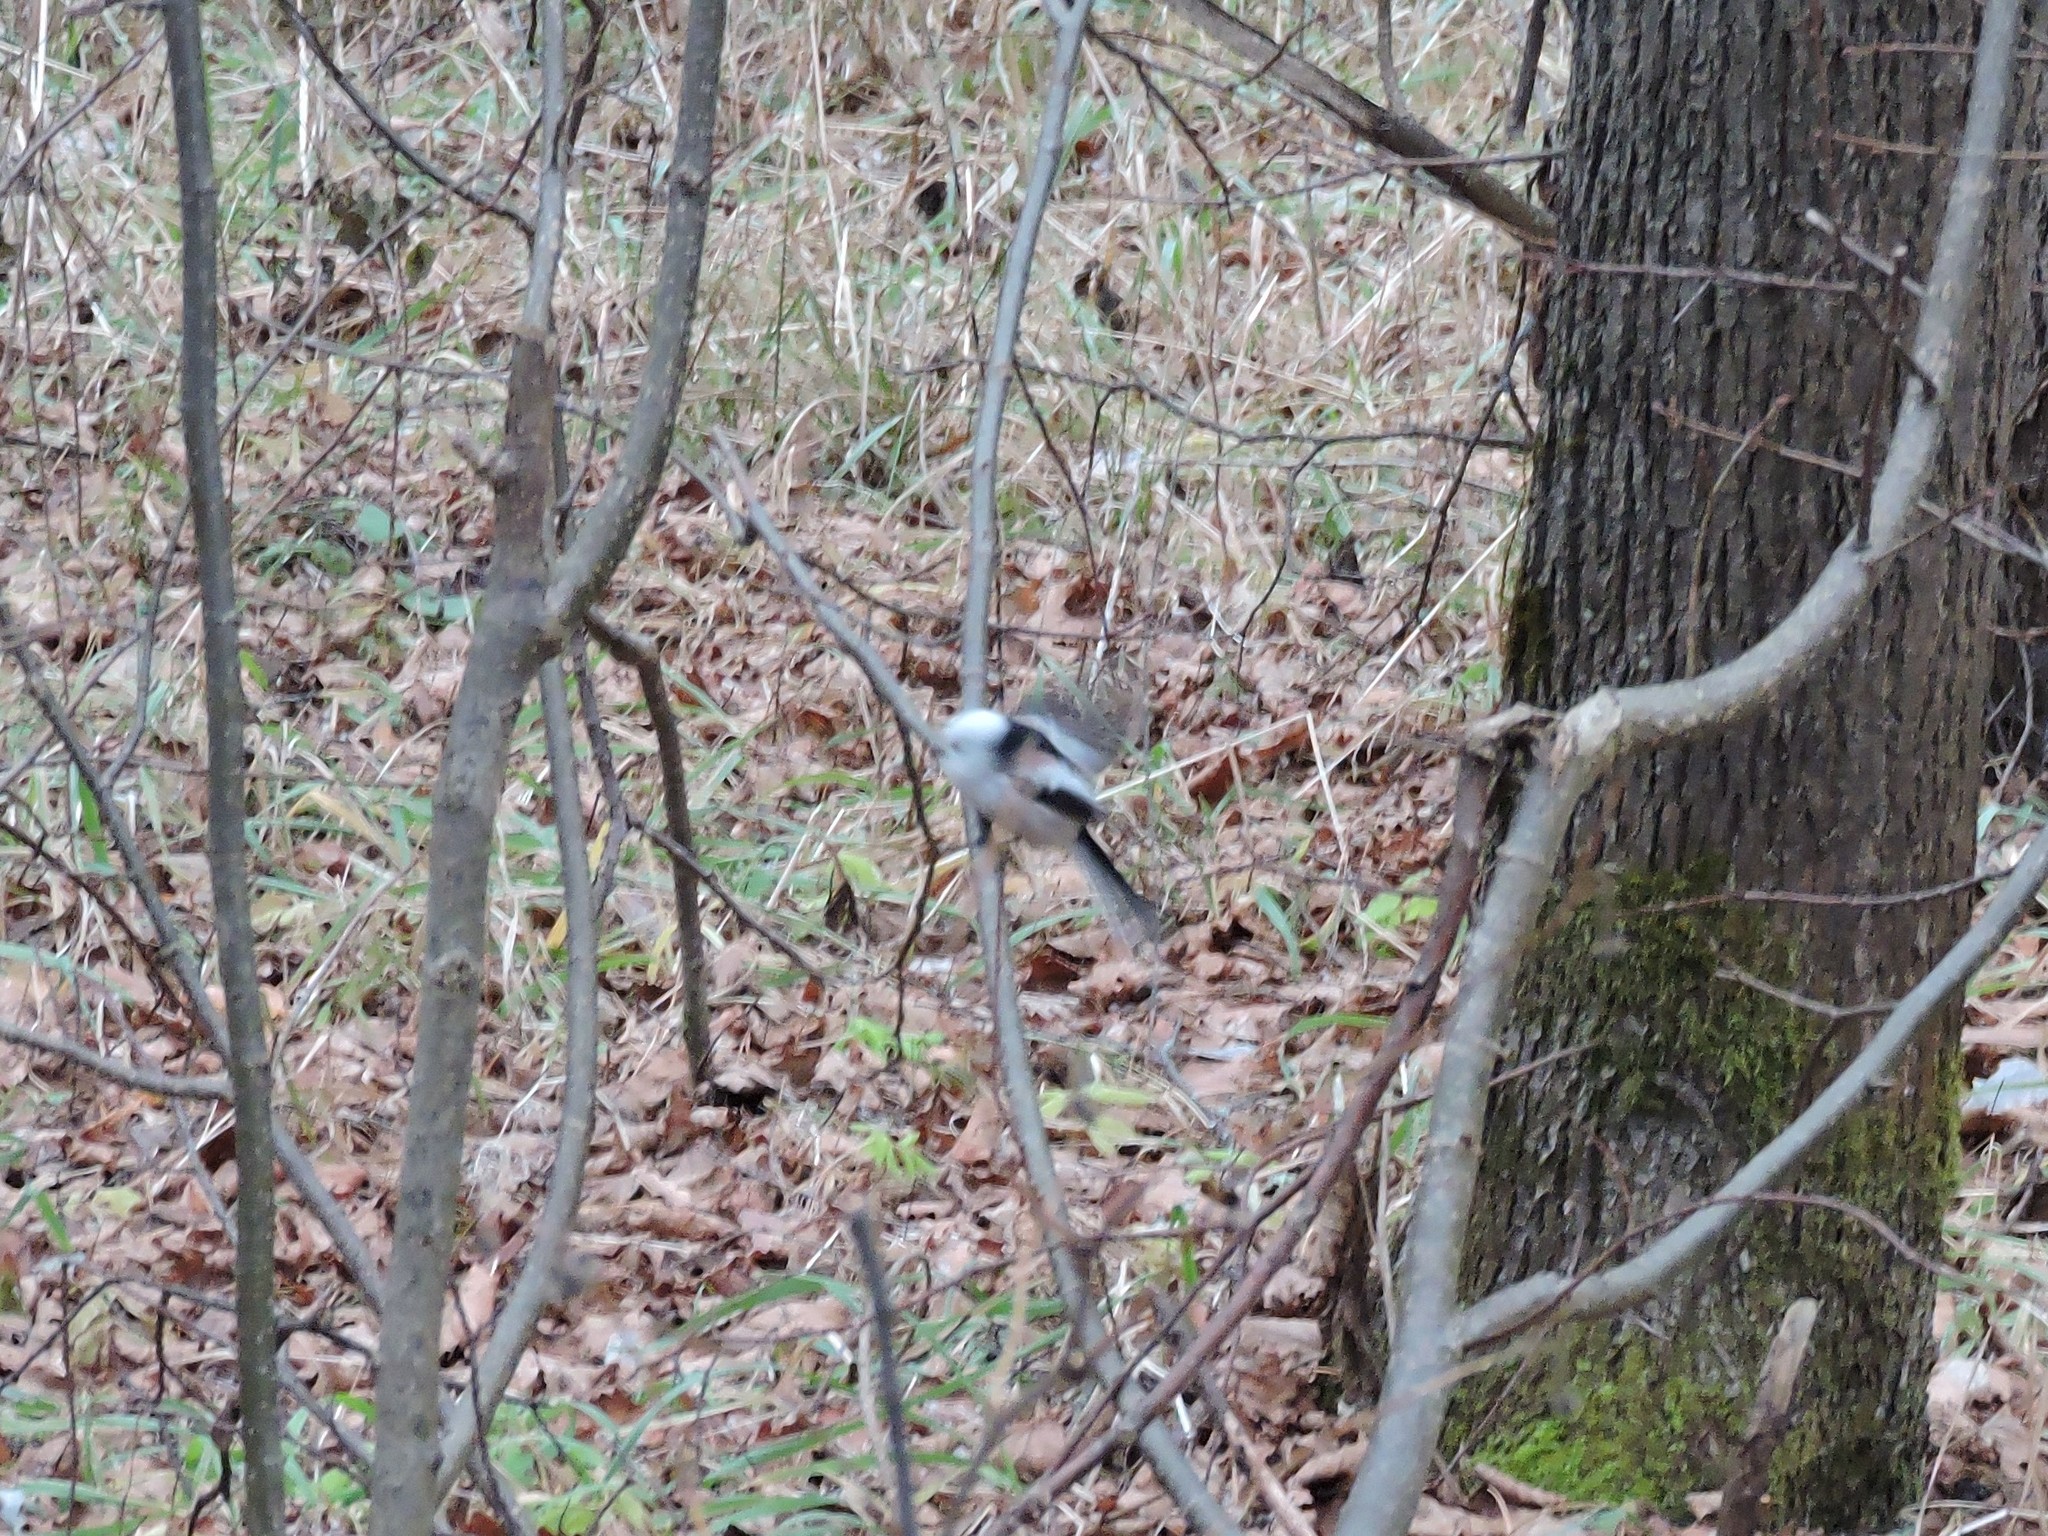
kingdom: Animalia
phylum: Chordata
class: Aves
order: Passeriformes
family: Aegithalidae
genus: Aegithalos
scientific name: Aegithalos caudatus
